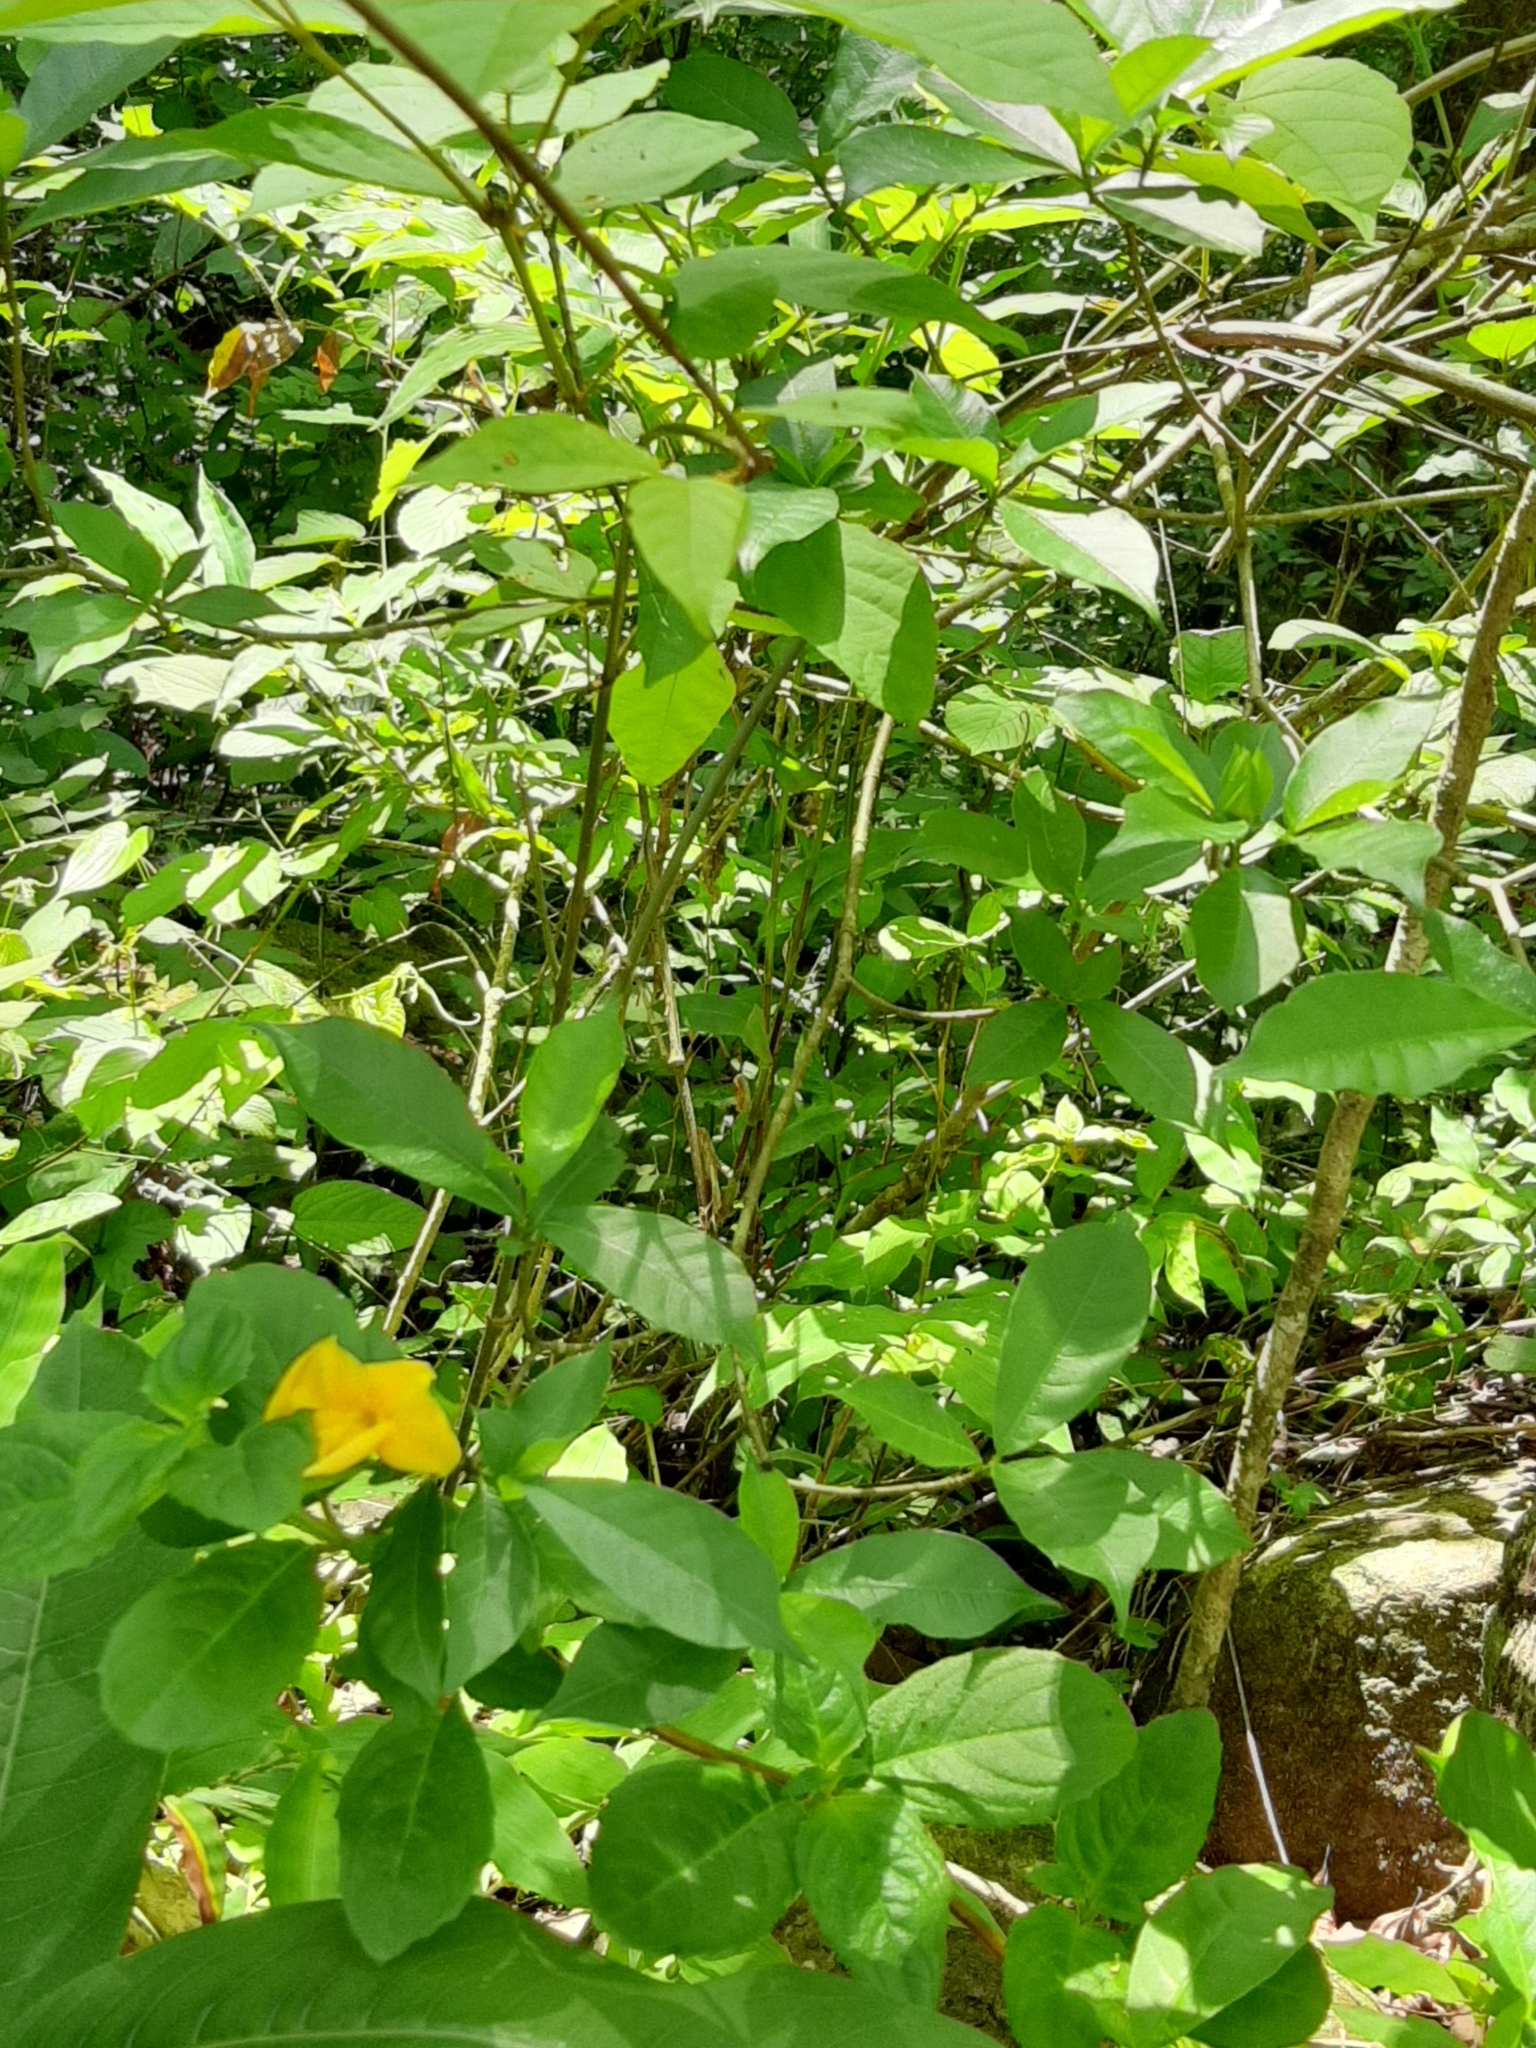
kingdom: Plantae
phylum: Tracheophyta
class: Magnoliopsida
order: Gentianales
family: Apocynaceae
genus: Tabernaemontana
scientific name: Tabernaemontana grandiflora
